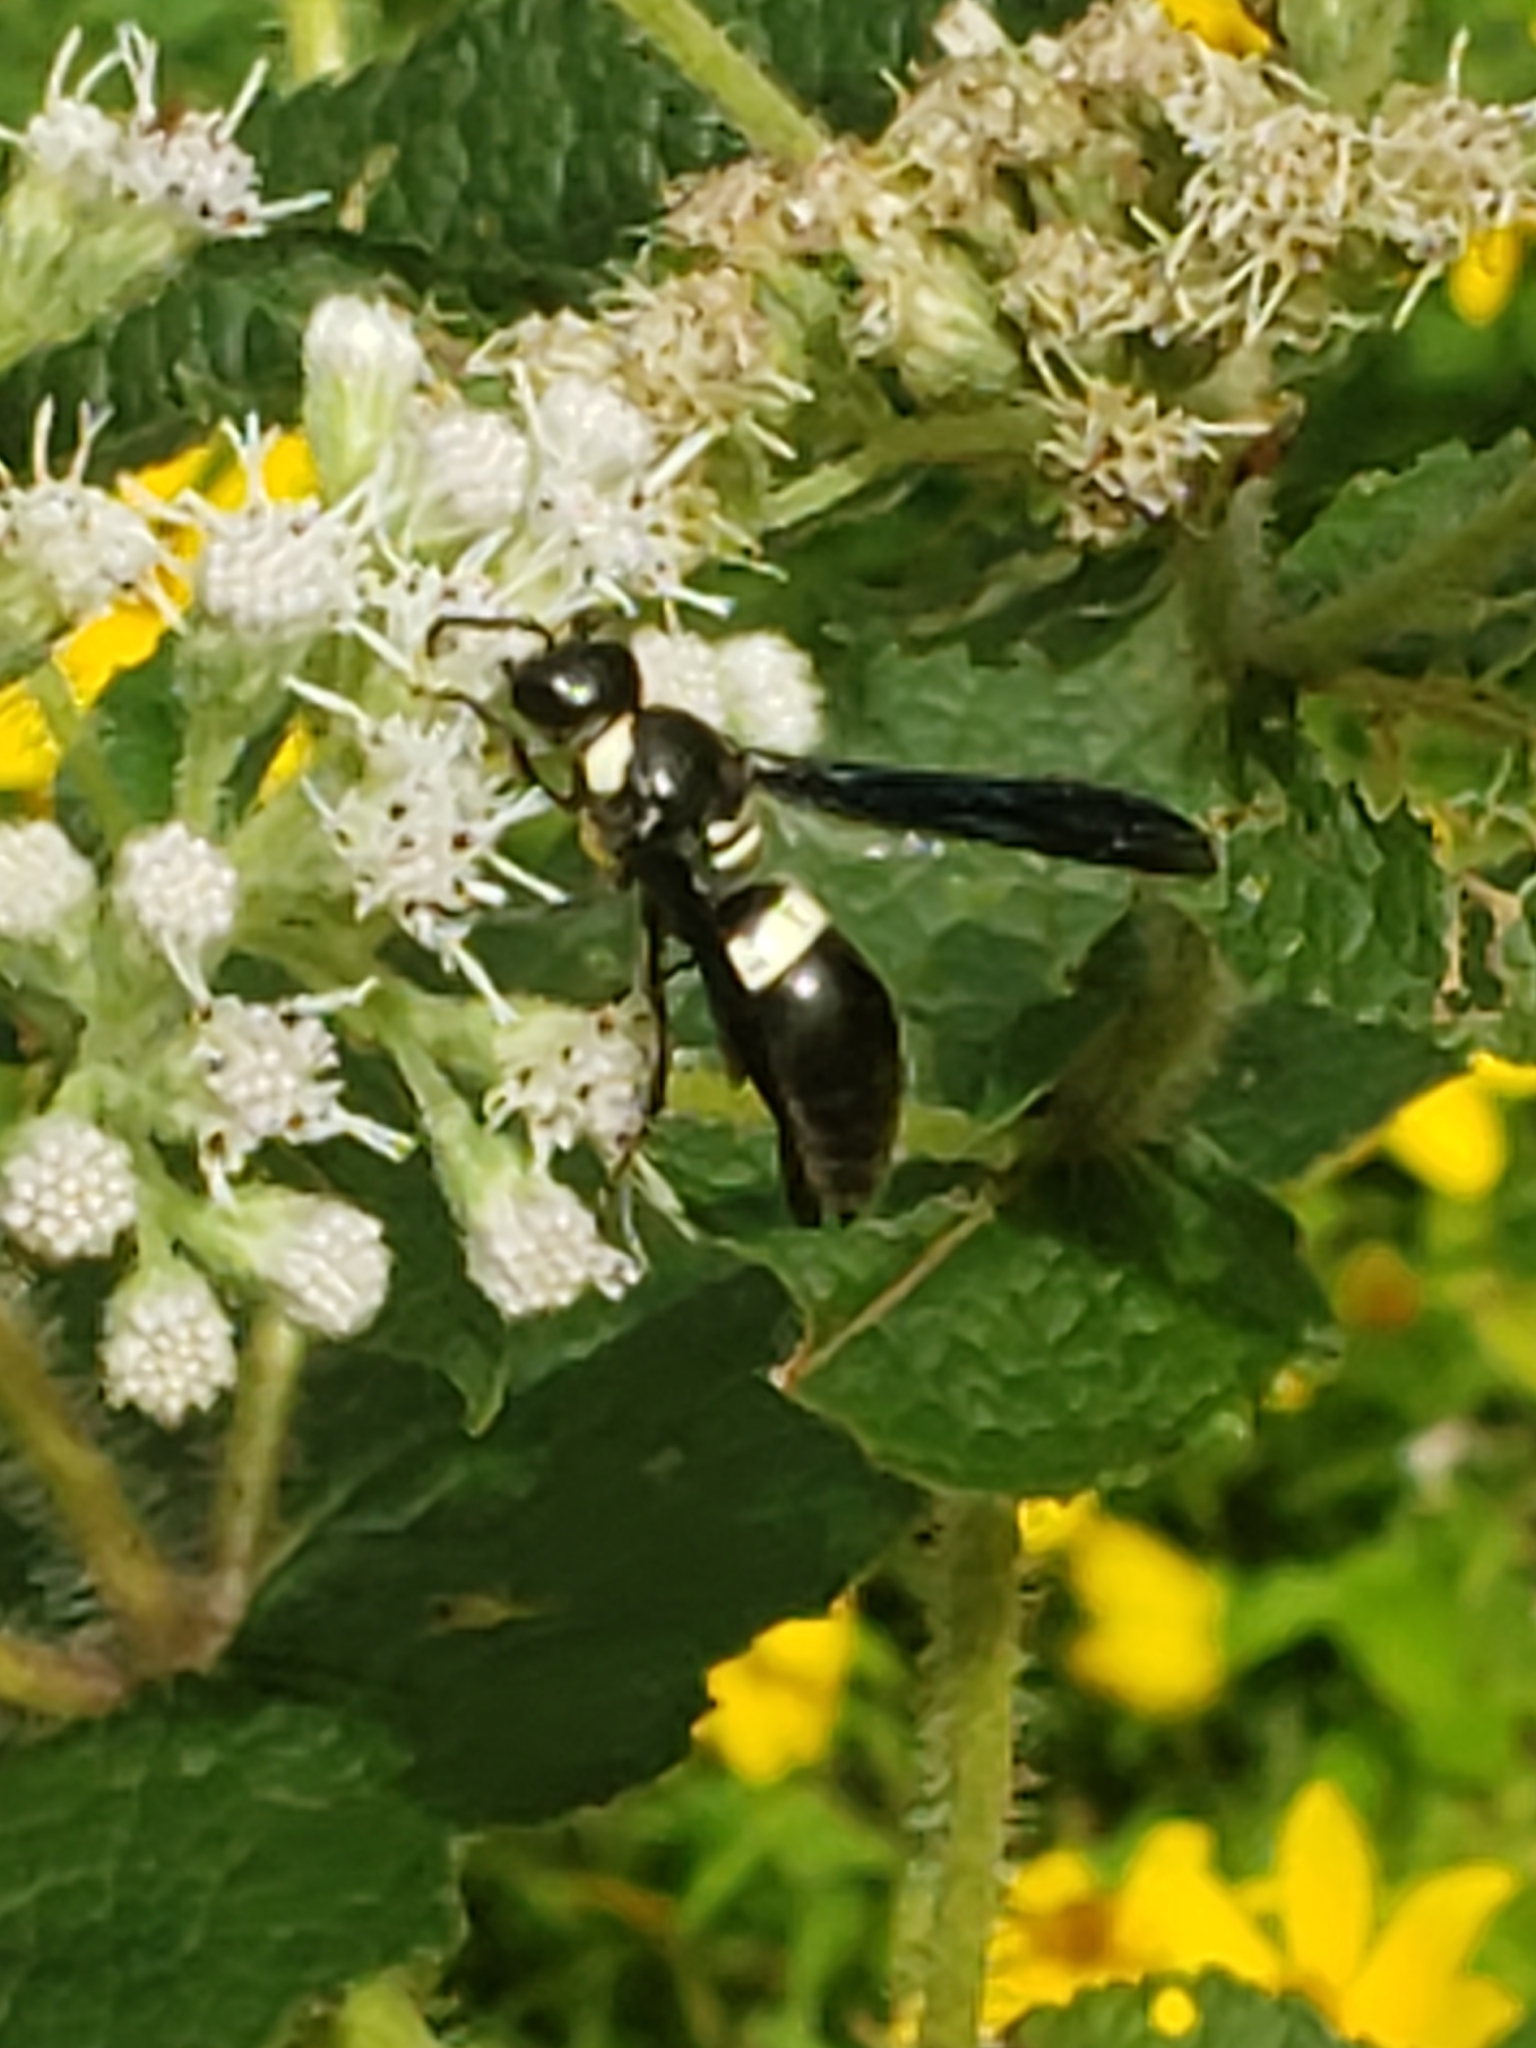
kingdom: Animalia
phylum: Arthropoda
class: Insecta
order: Hymenoptera
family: Eumenidae
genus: Monobia
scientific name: Monobia quadridens
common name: Four-toothed mason wasp
